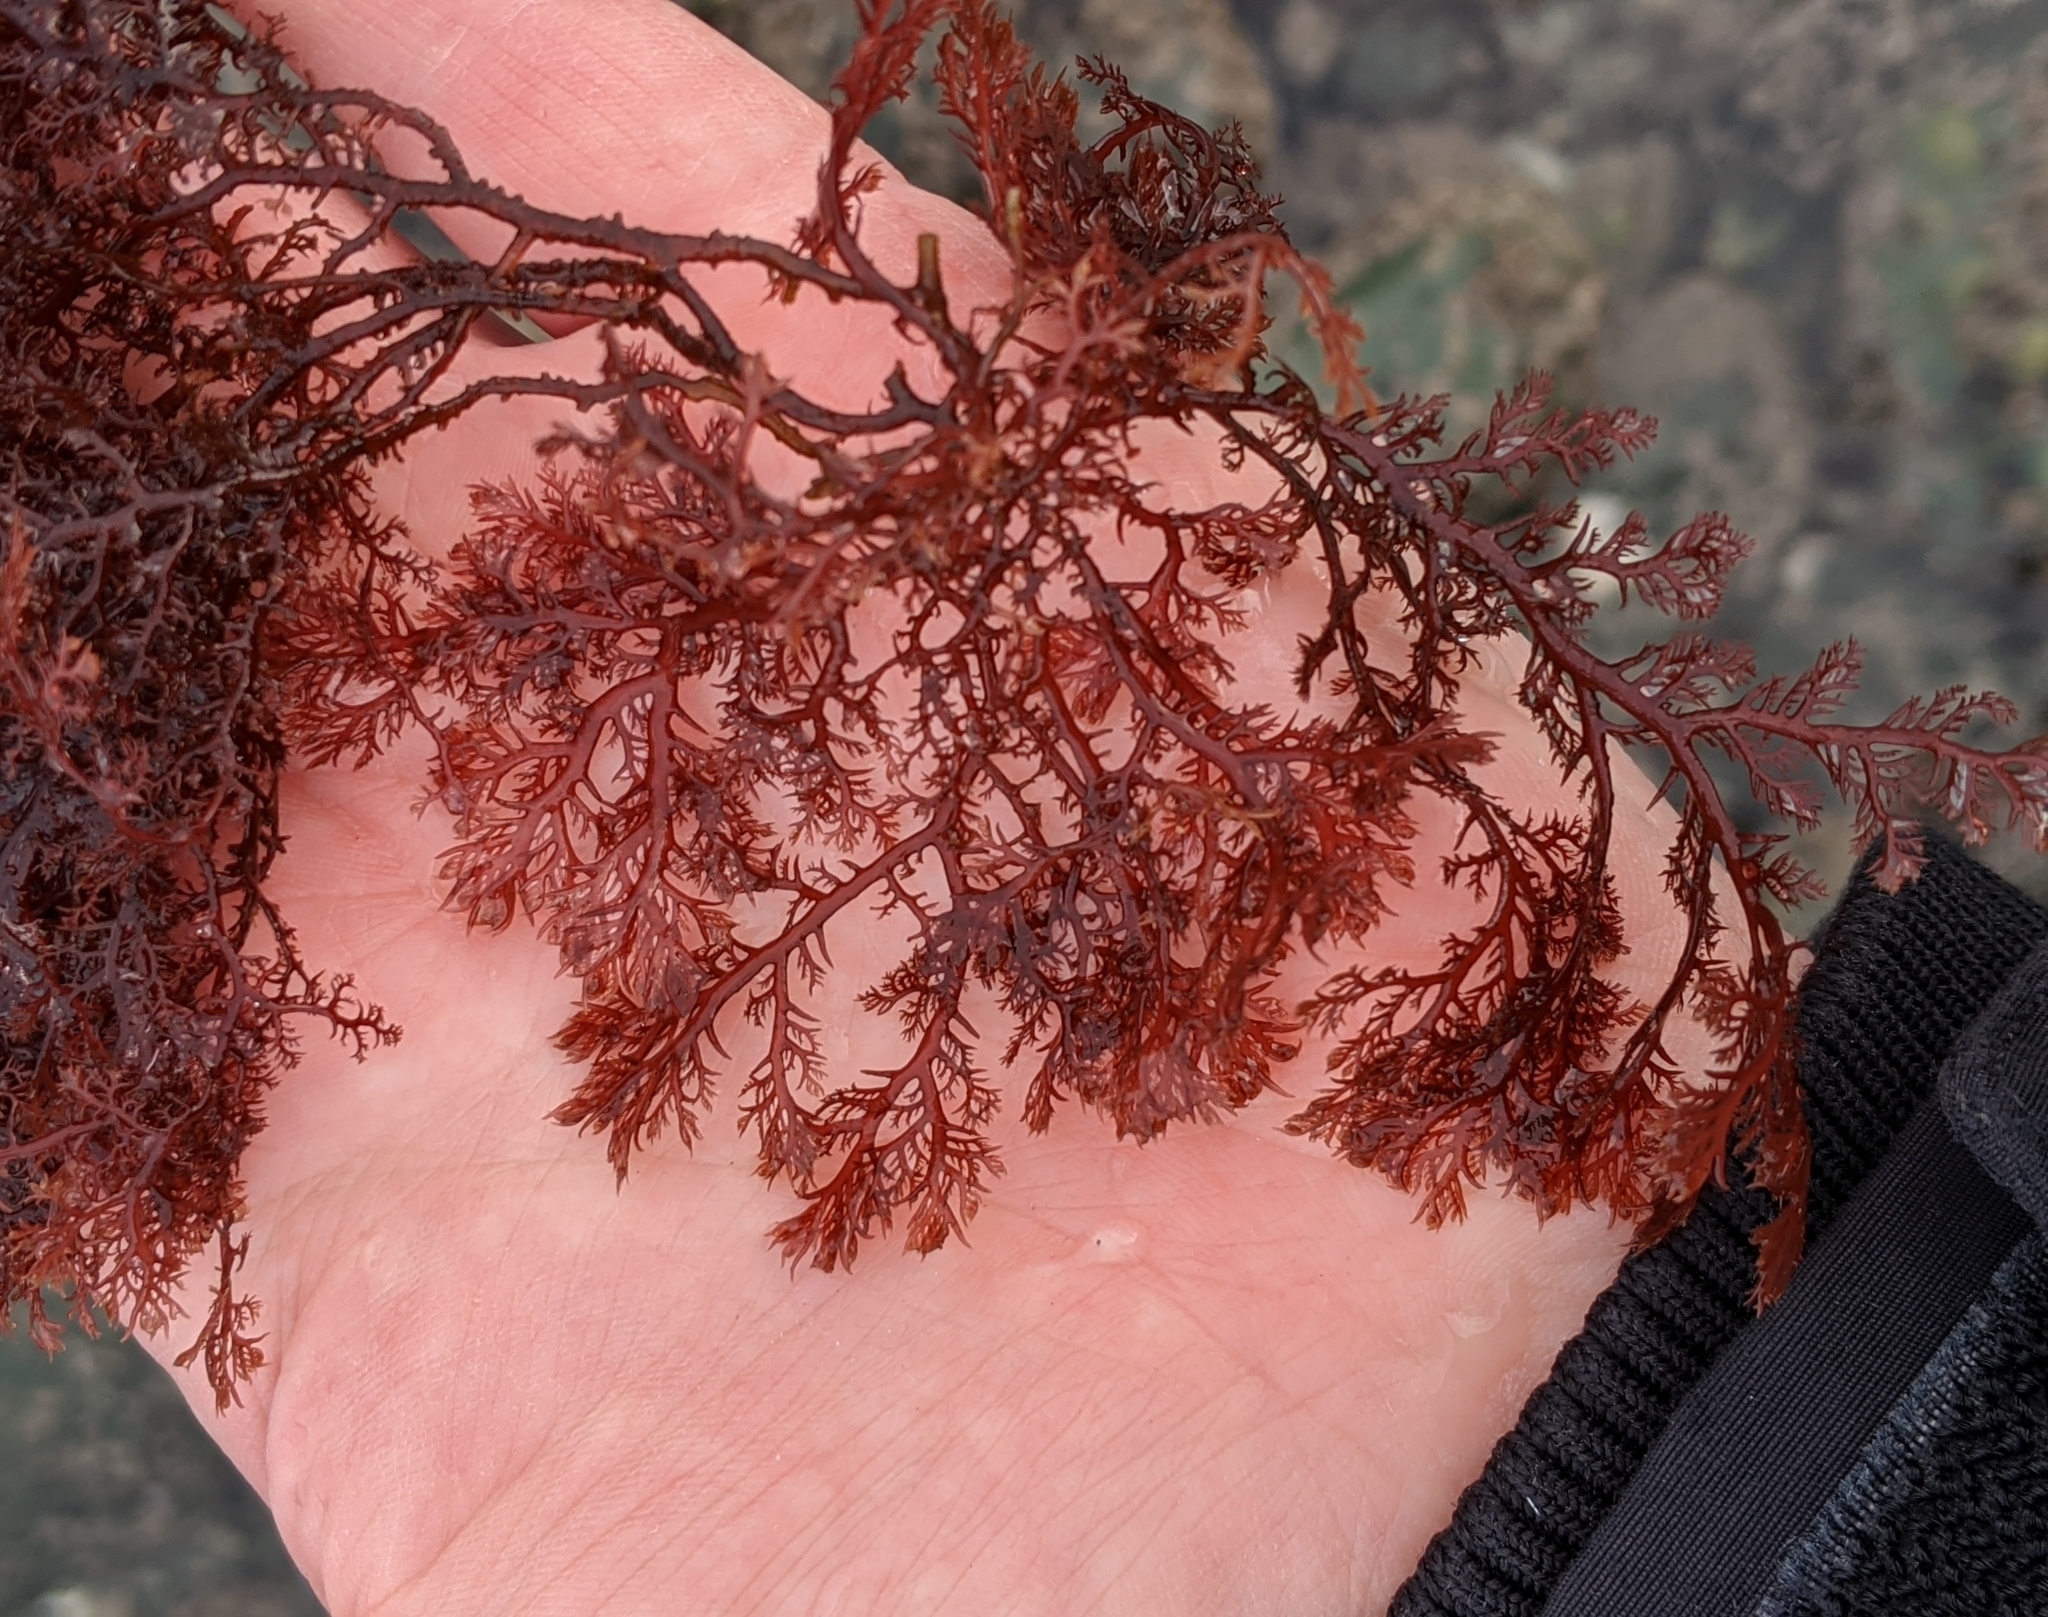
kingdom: Plantae
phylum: Rhodophyta
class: Florideophyceae
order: Plocamiales
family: Plocamiaceae
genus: Plocamium
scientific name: Plocamium cartilagineum
